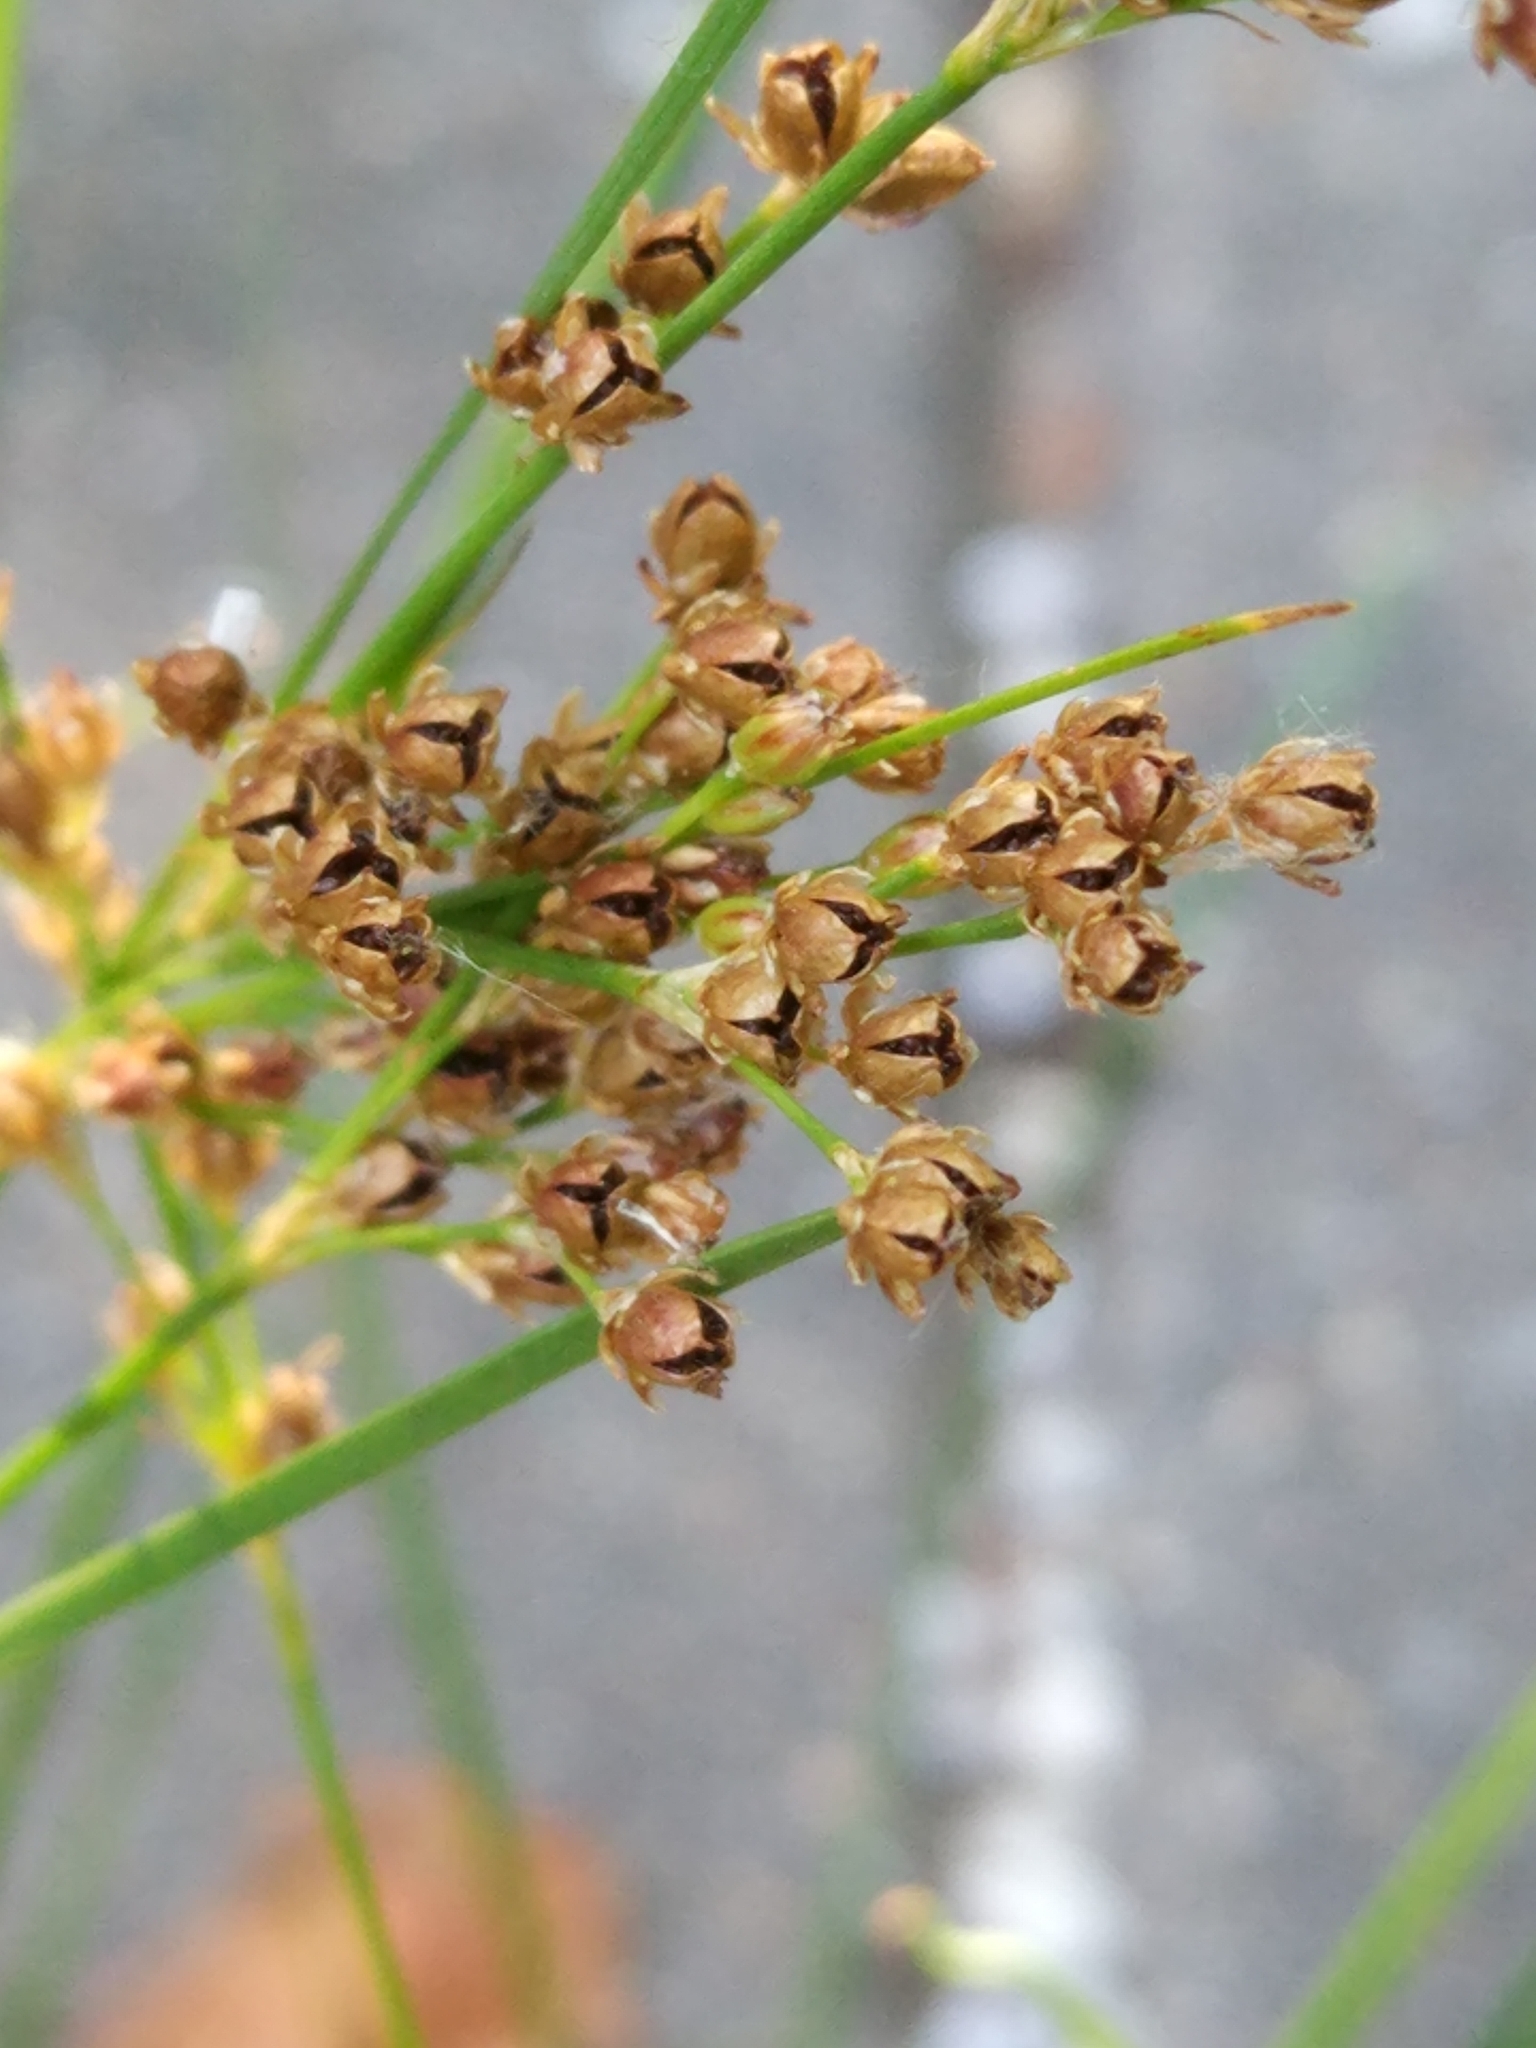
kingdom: Plantae
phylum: Tracheophyta
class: Liliopsida
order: Poales
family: Juncaceae
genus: Juncus
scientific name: Juncus compressus
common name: Round-fruited rush
